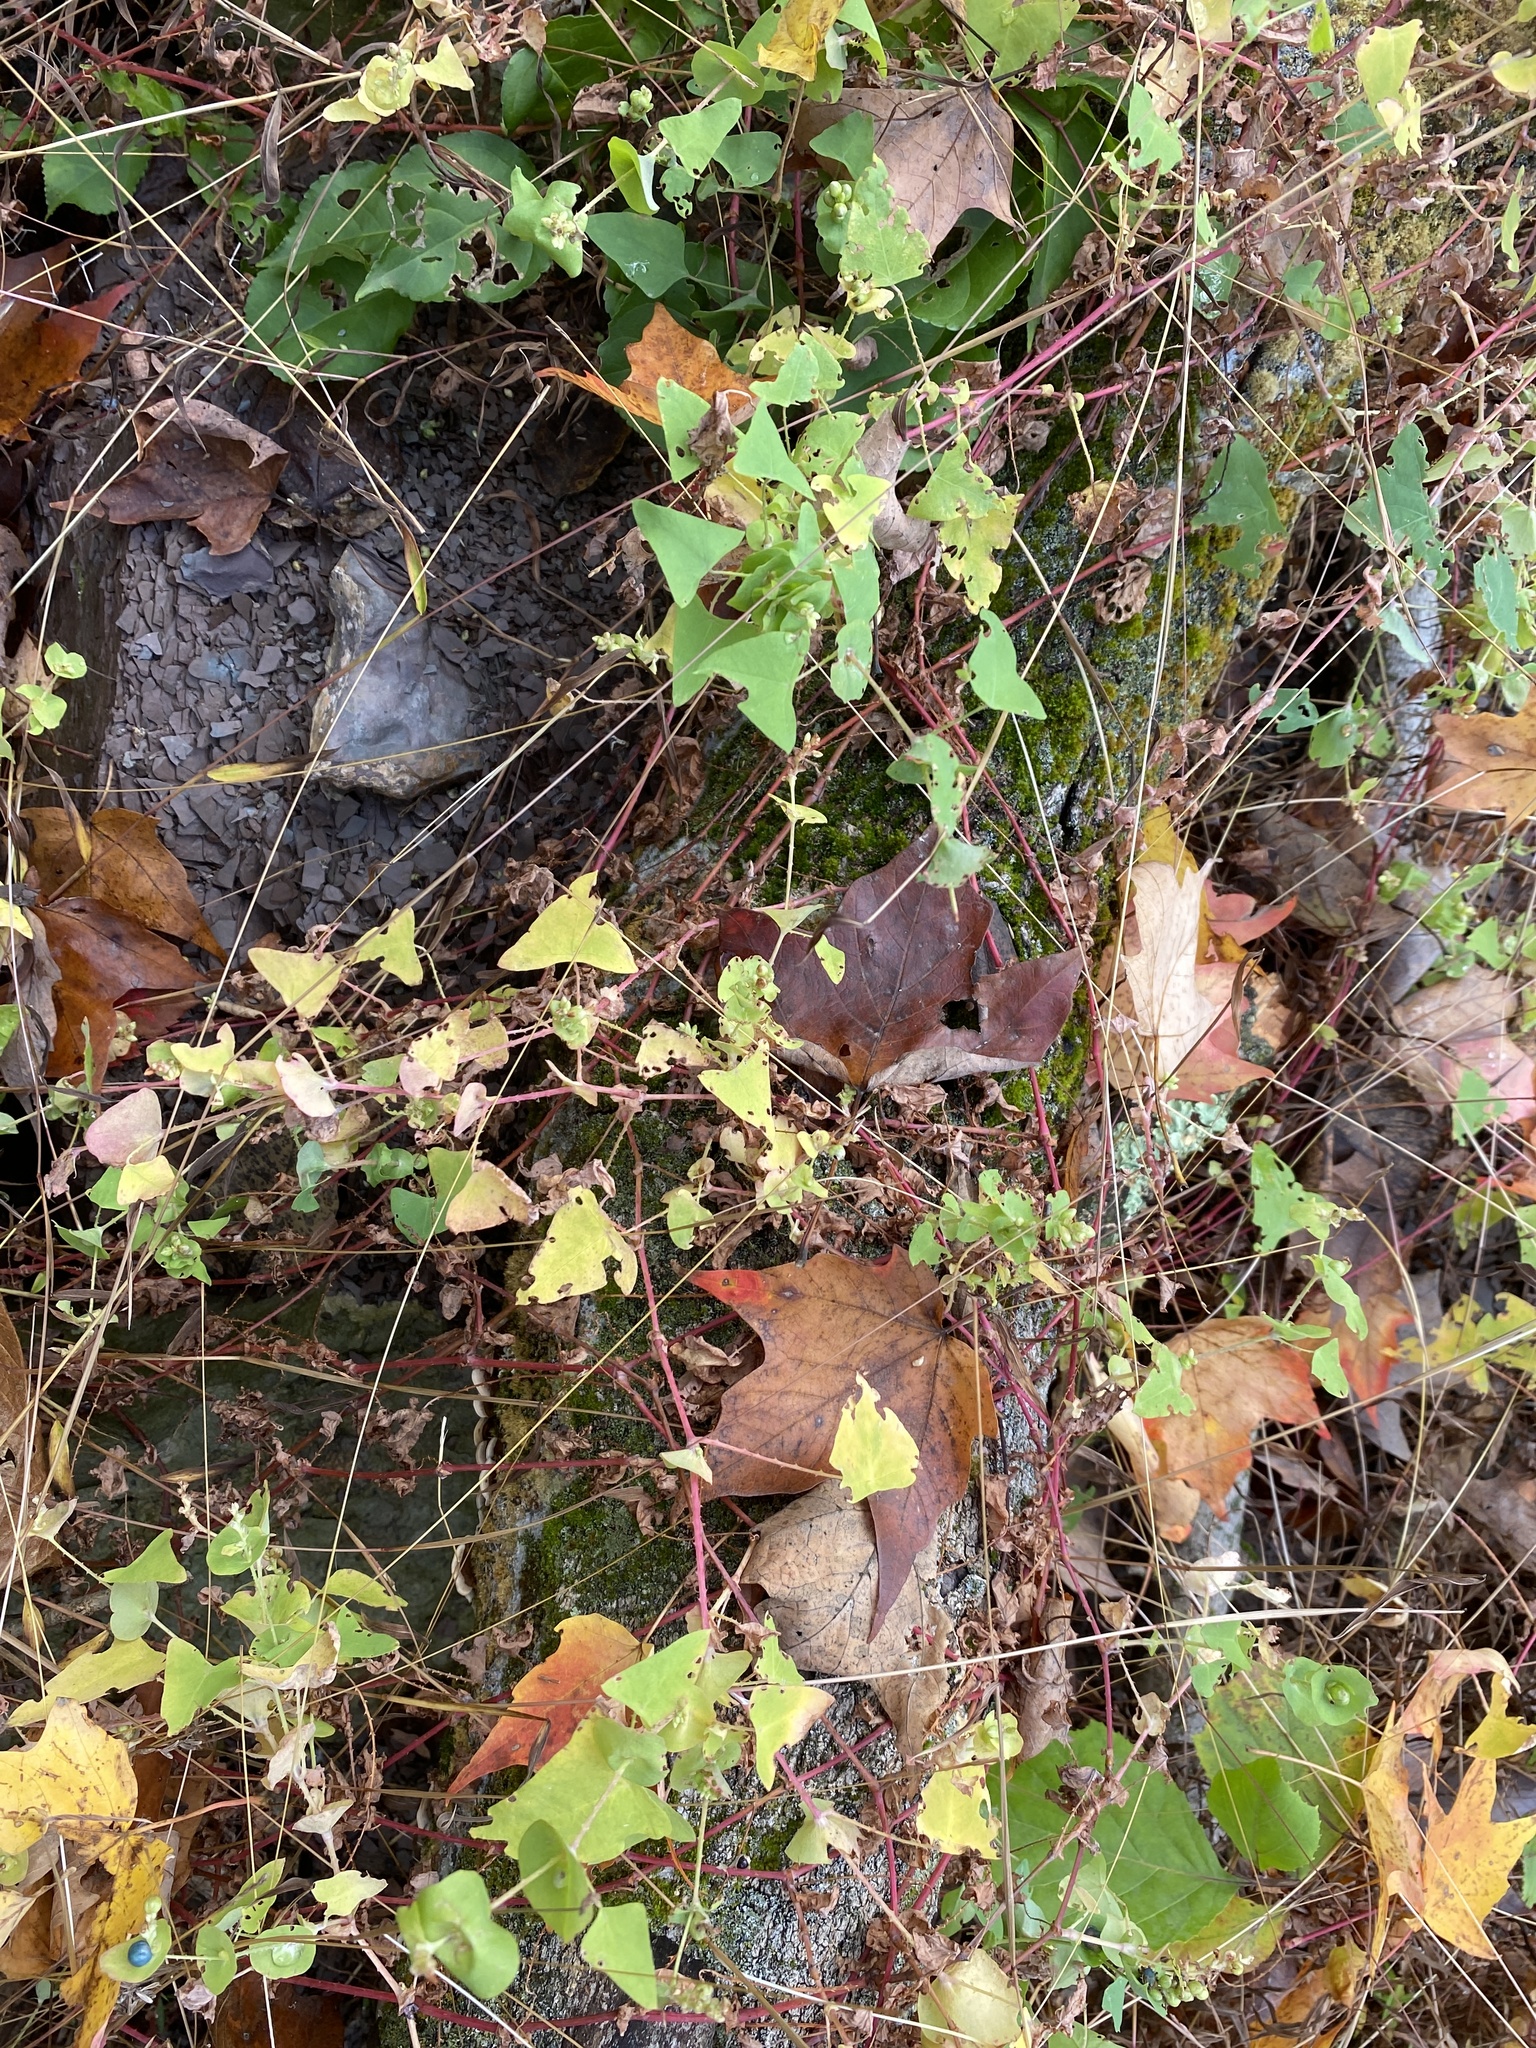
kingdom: Plantae
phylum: Tracheophyta
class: Magnoliopsida
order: Caryophyllales
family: Polygonaceae
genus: Persicaria
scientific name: Persicaria perfoliata
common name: Asiatic tearthumb
